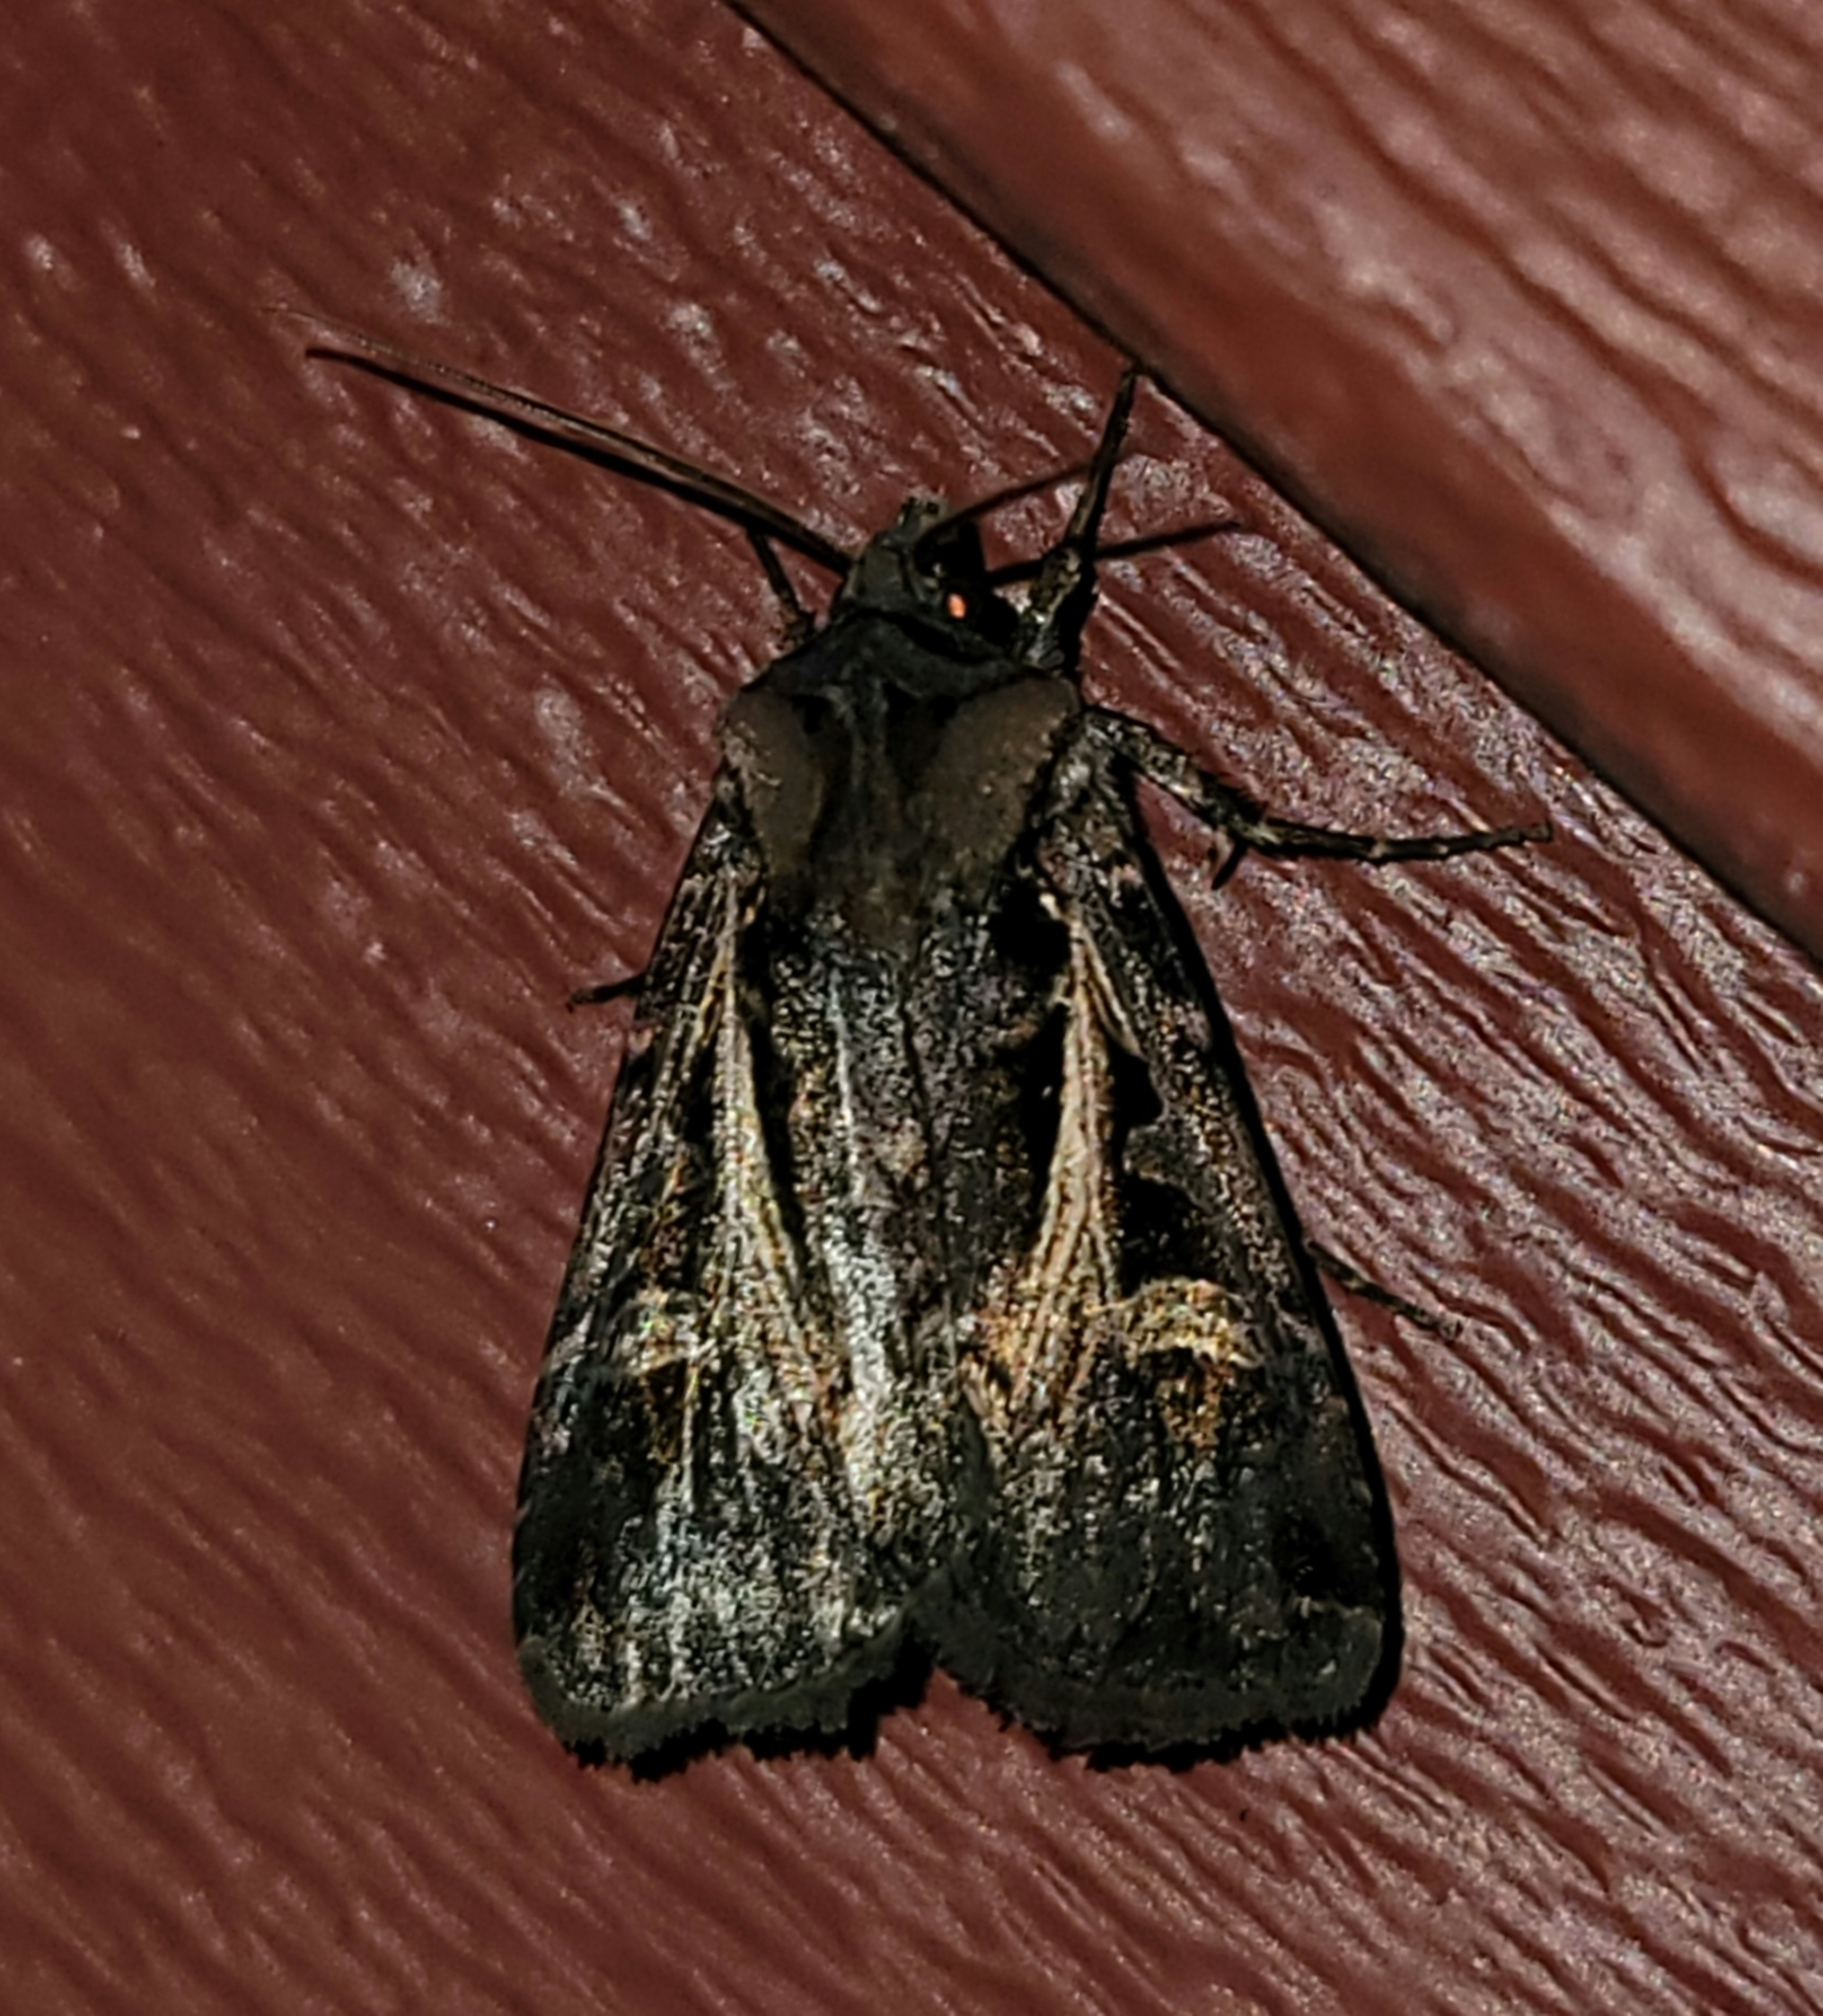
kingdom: Animalia
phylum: Arthropoda
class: Insecta
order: Lepidoptera
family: Noctuidae
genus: Feltia
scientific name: Feltia herilis
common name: Master's dart
